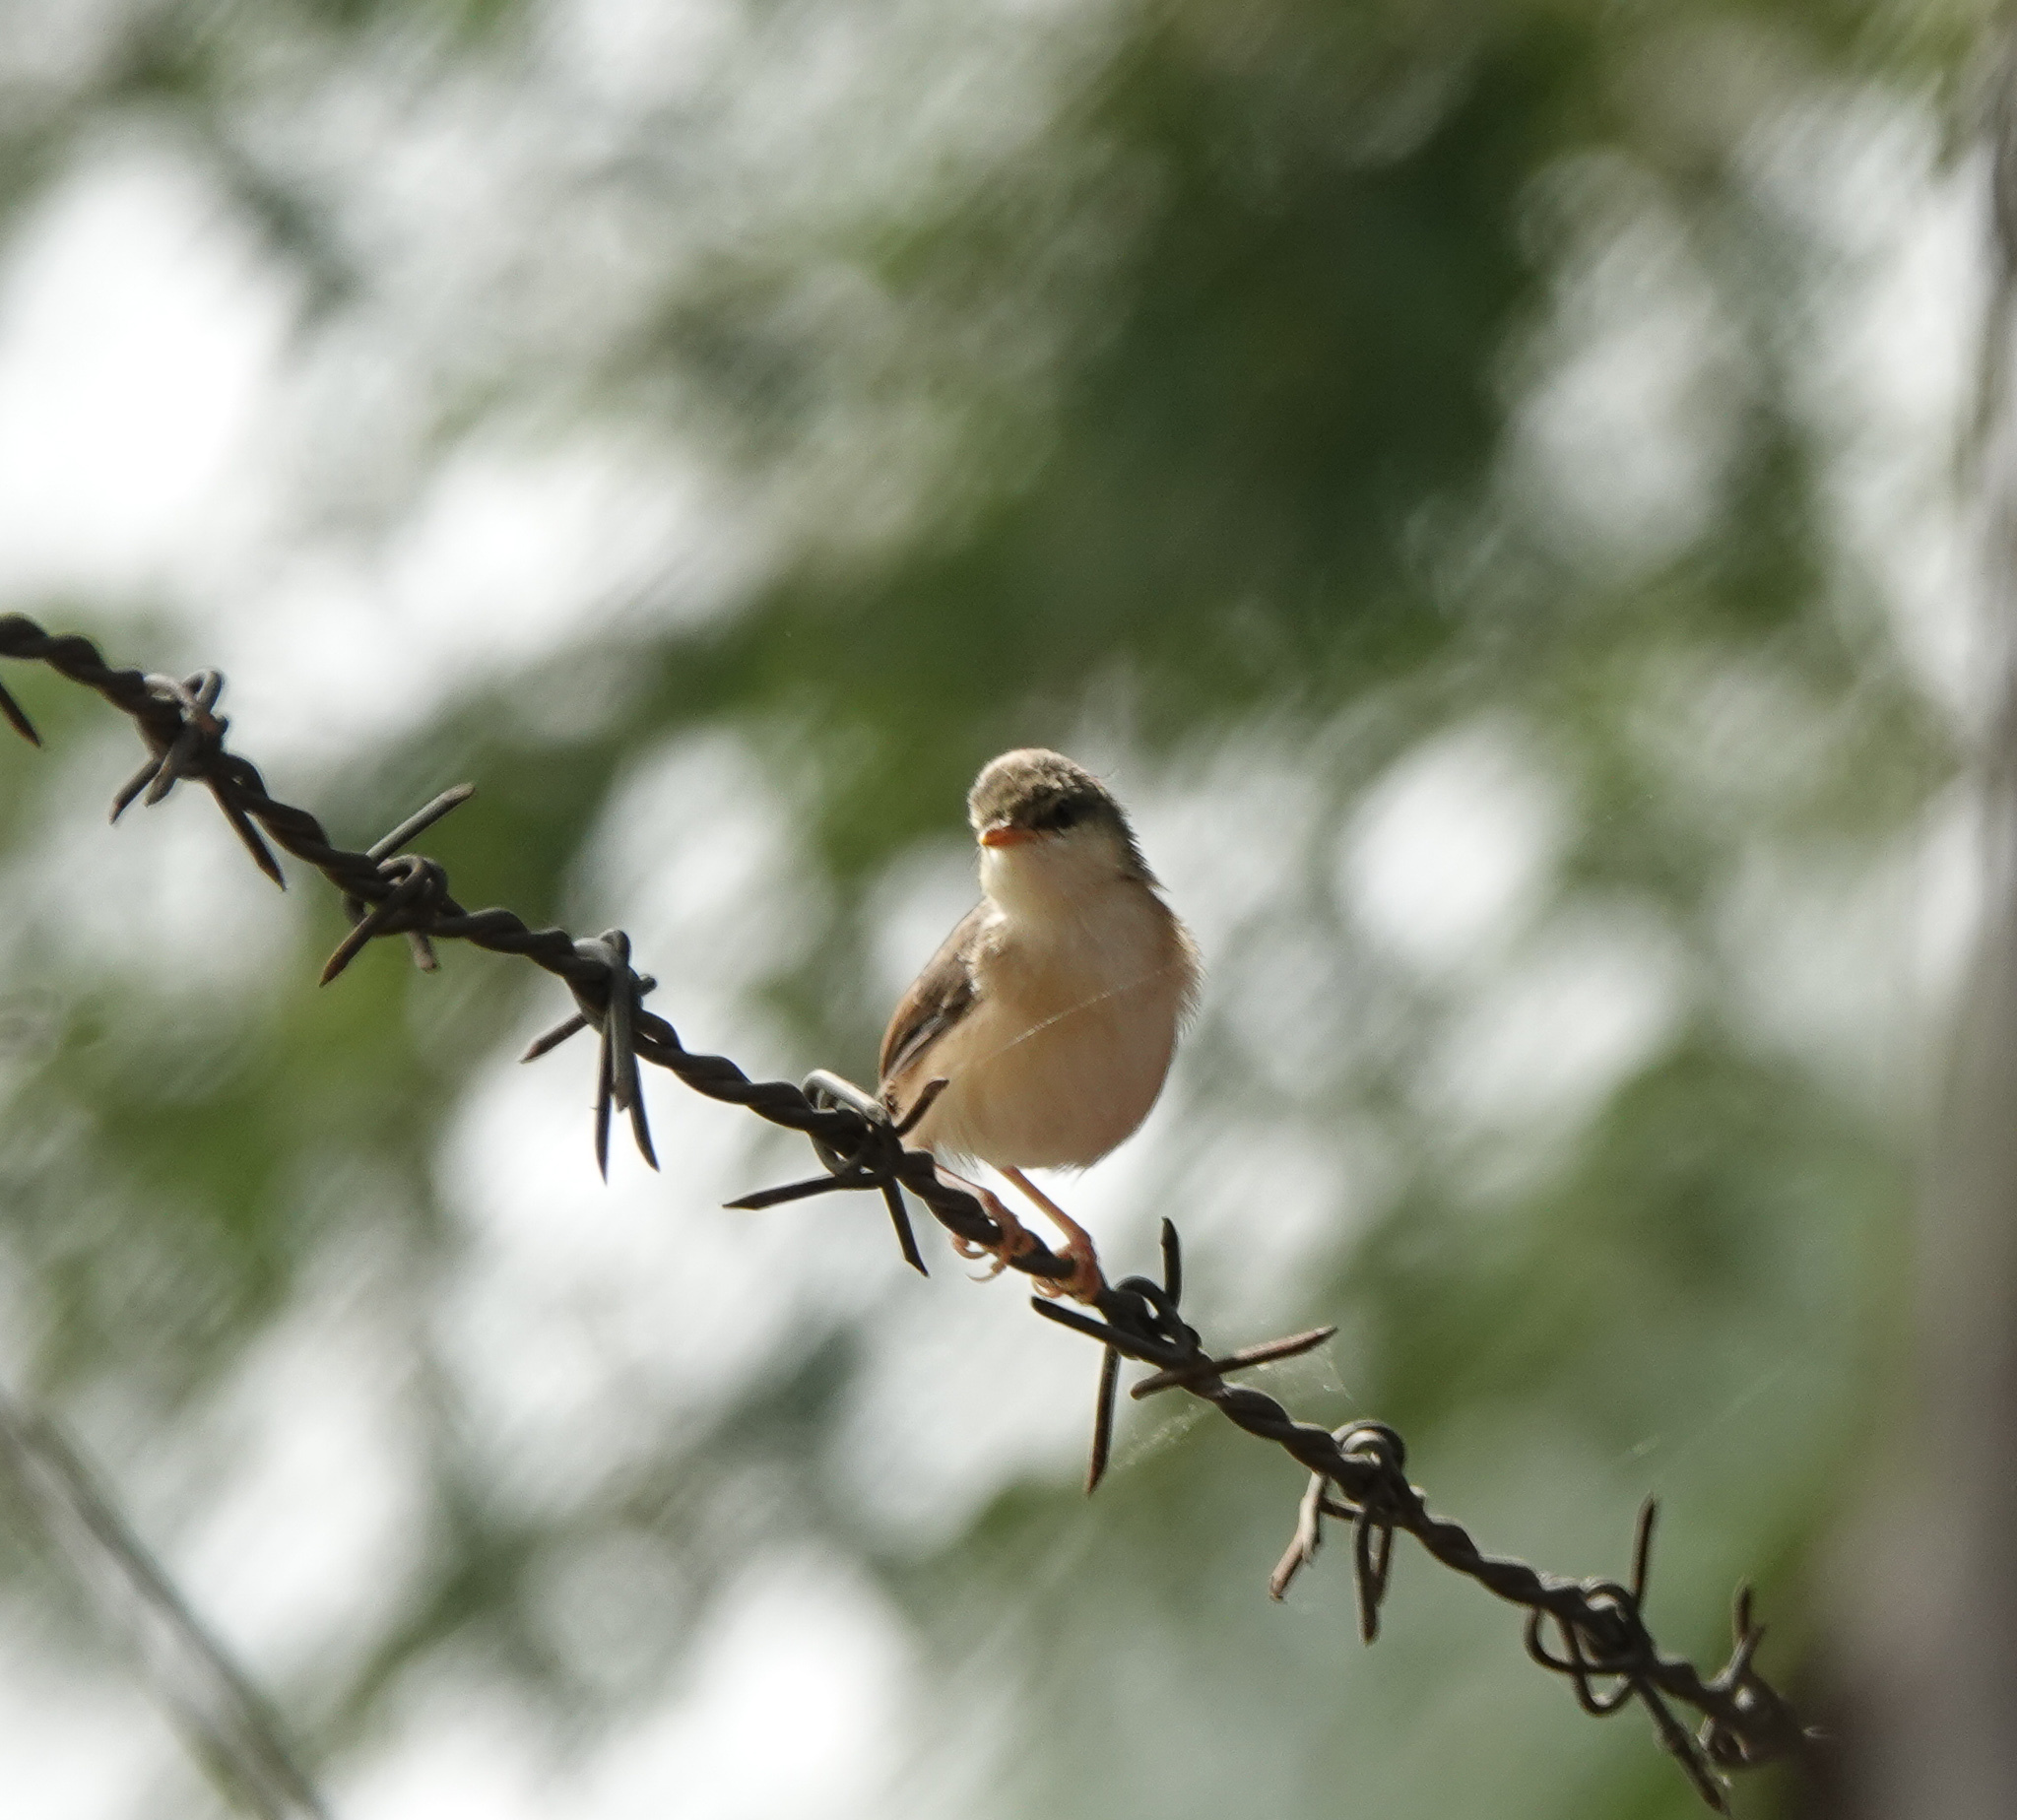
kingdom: Animalia
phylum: Chordata
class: Aves
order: Passeriformes
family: Cisticolidae
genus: Prinia
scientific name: Prinia socialis
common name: Ashy prinia
